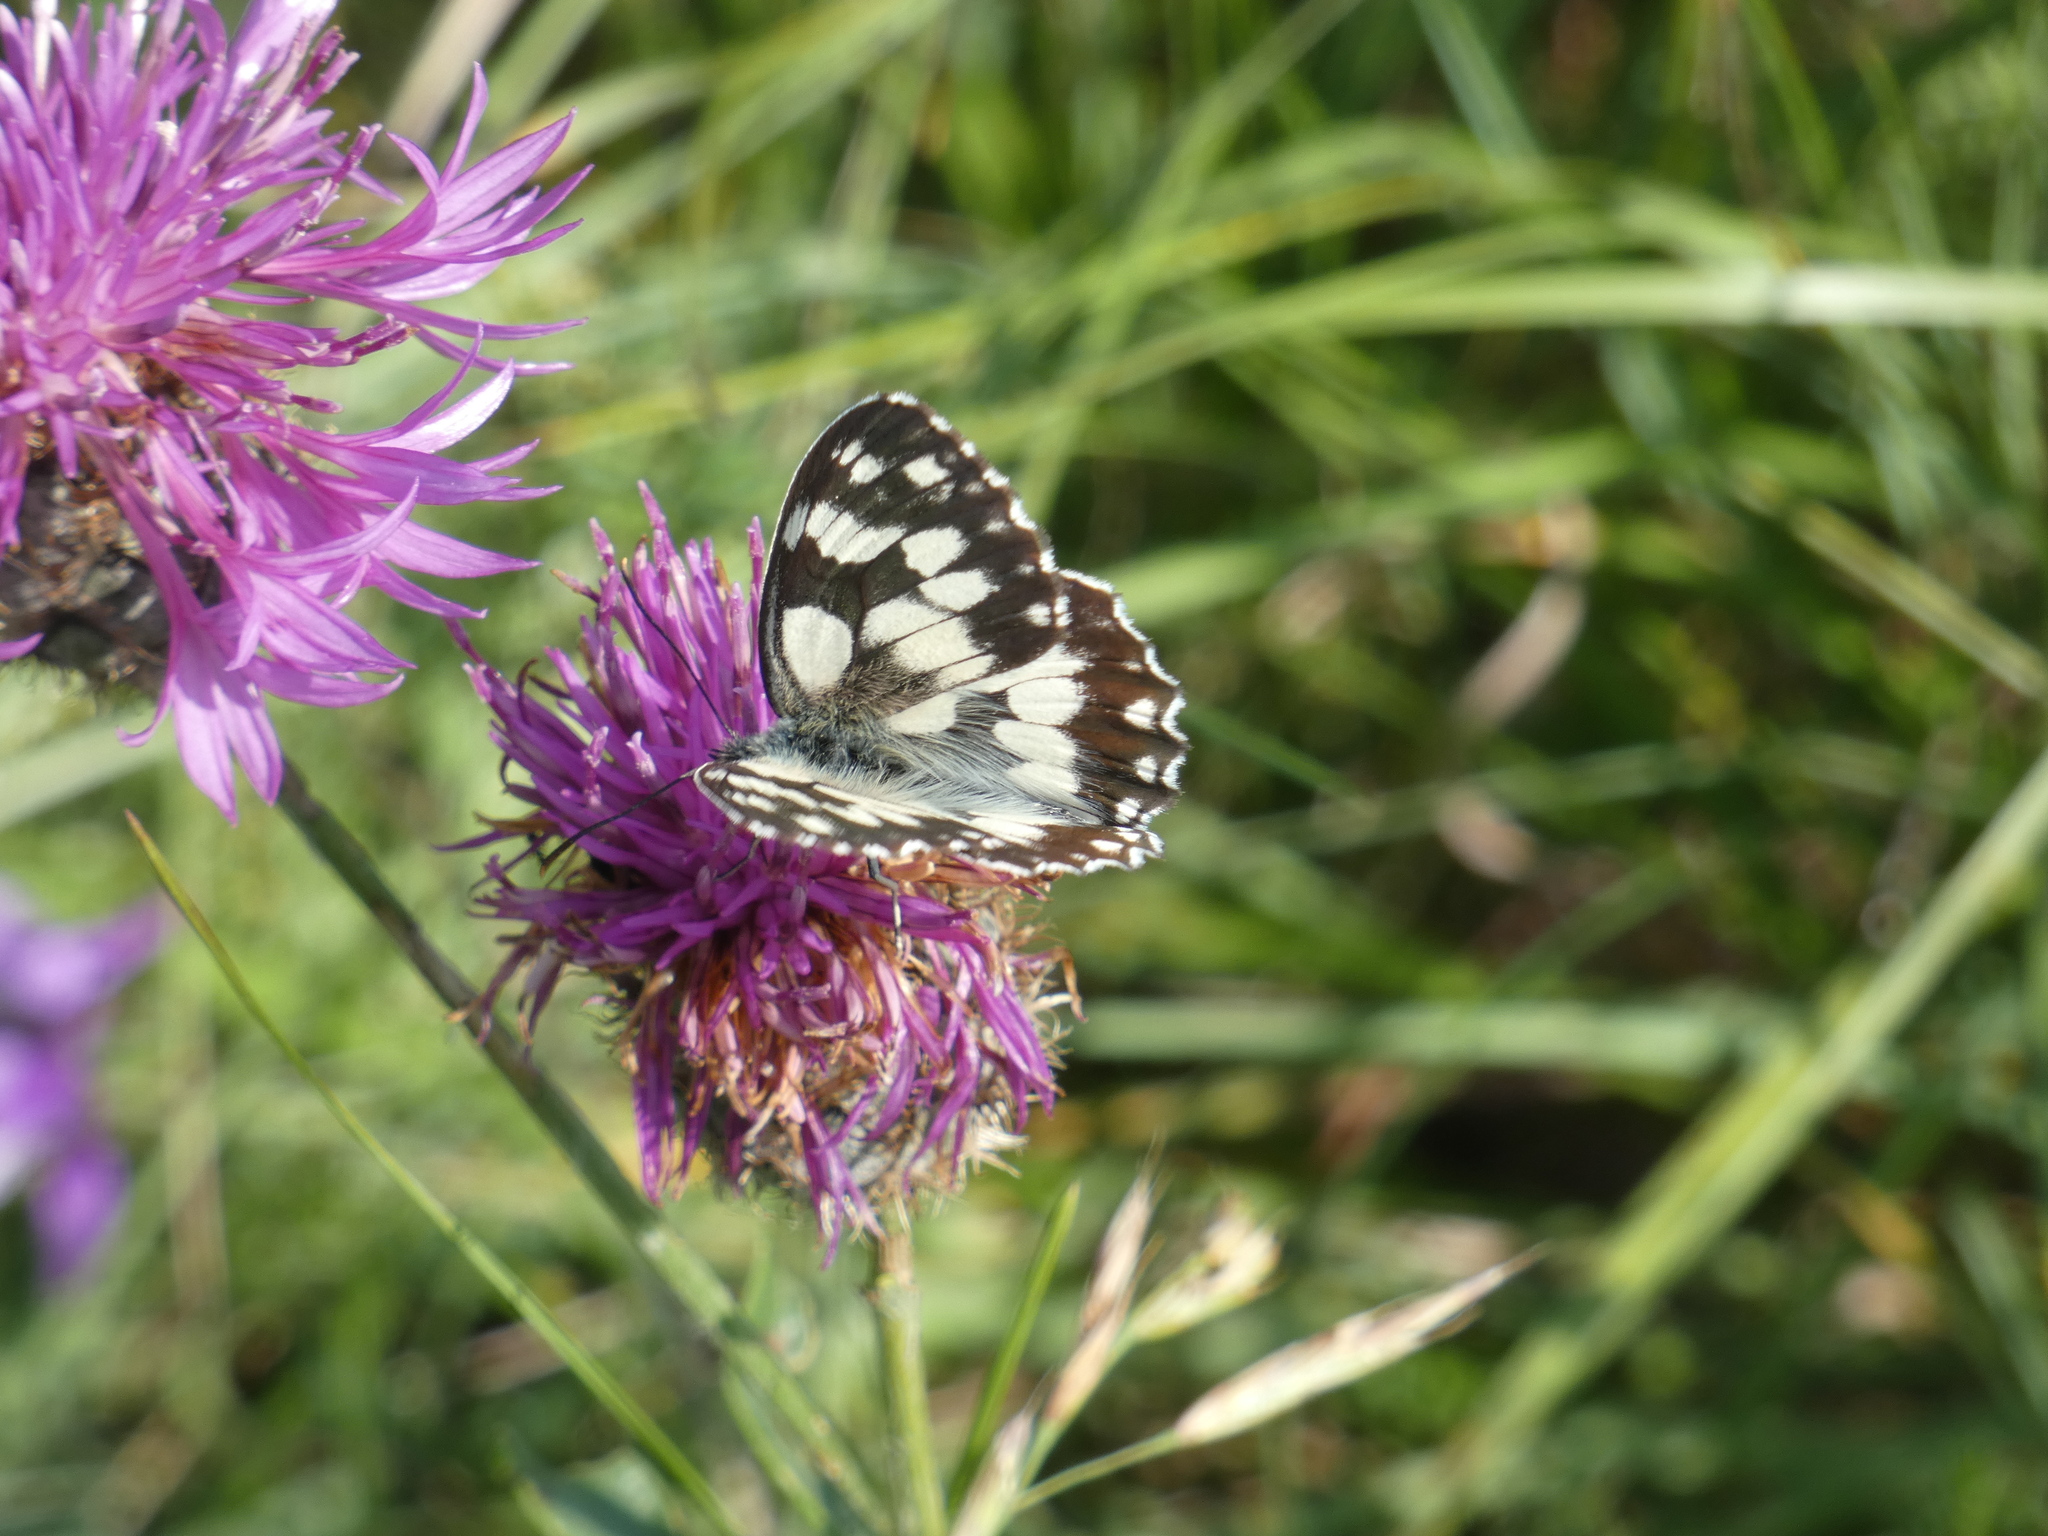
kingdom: Animalia
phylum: Arthropoda
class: Insecta
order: Lepidoptera
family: Nymphalidae
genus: Melanargia
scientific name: Melanargia galathea
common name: Marbled white
